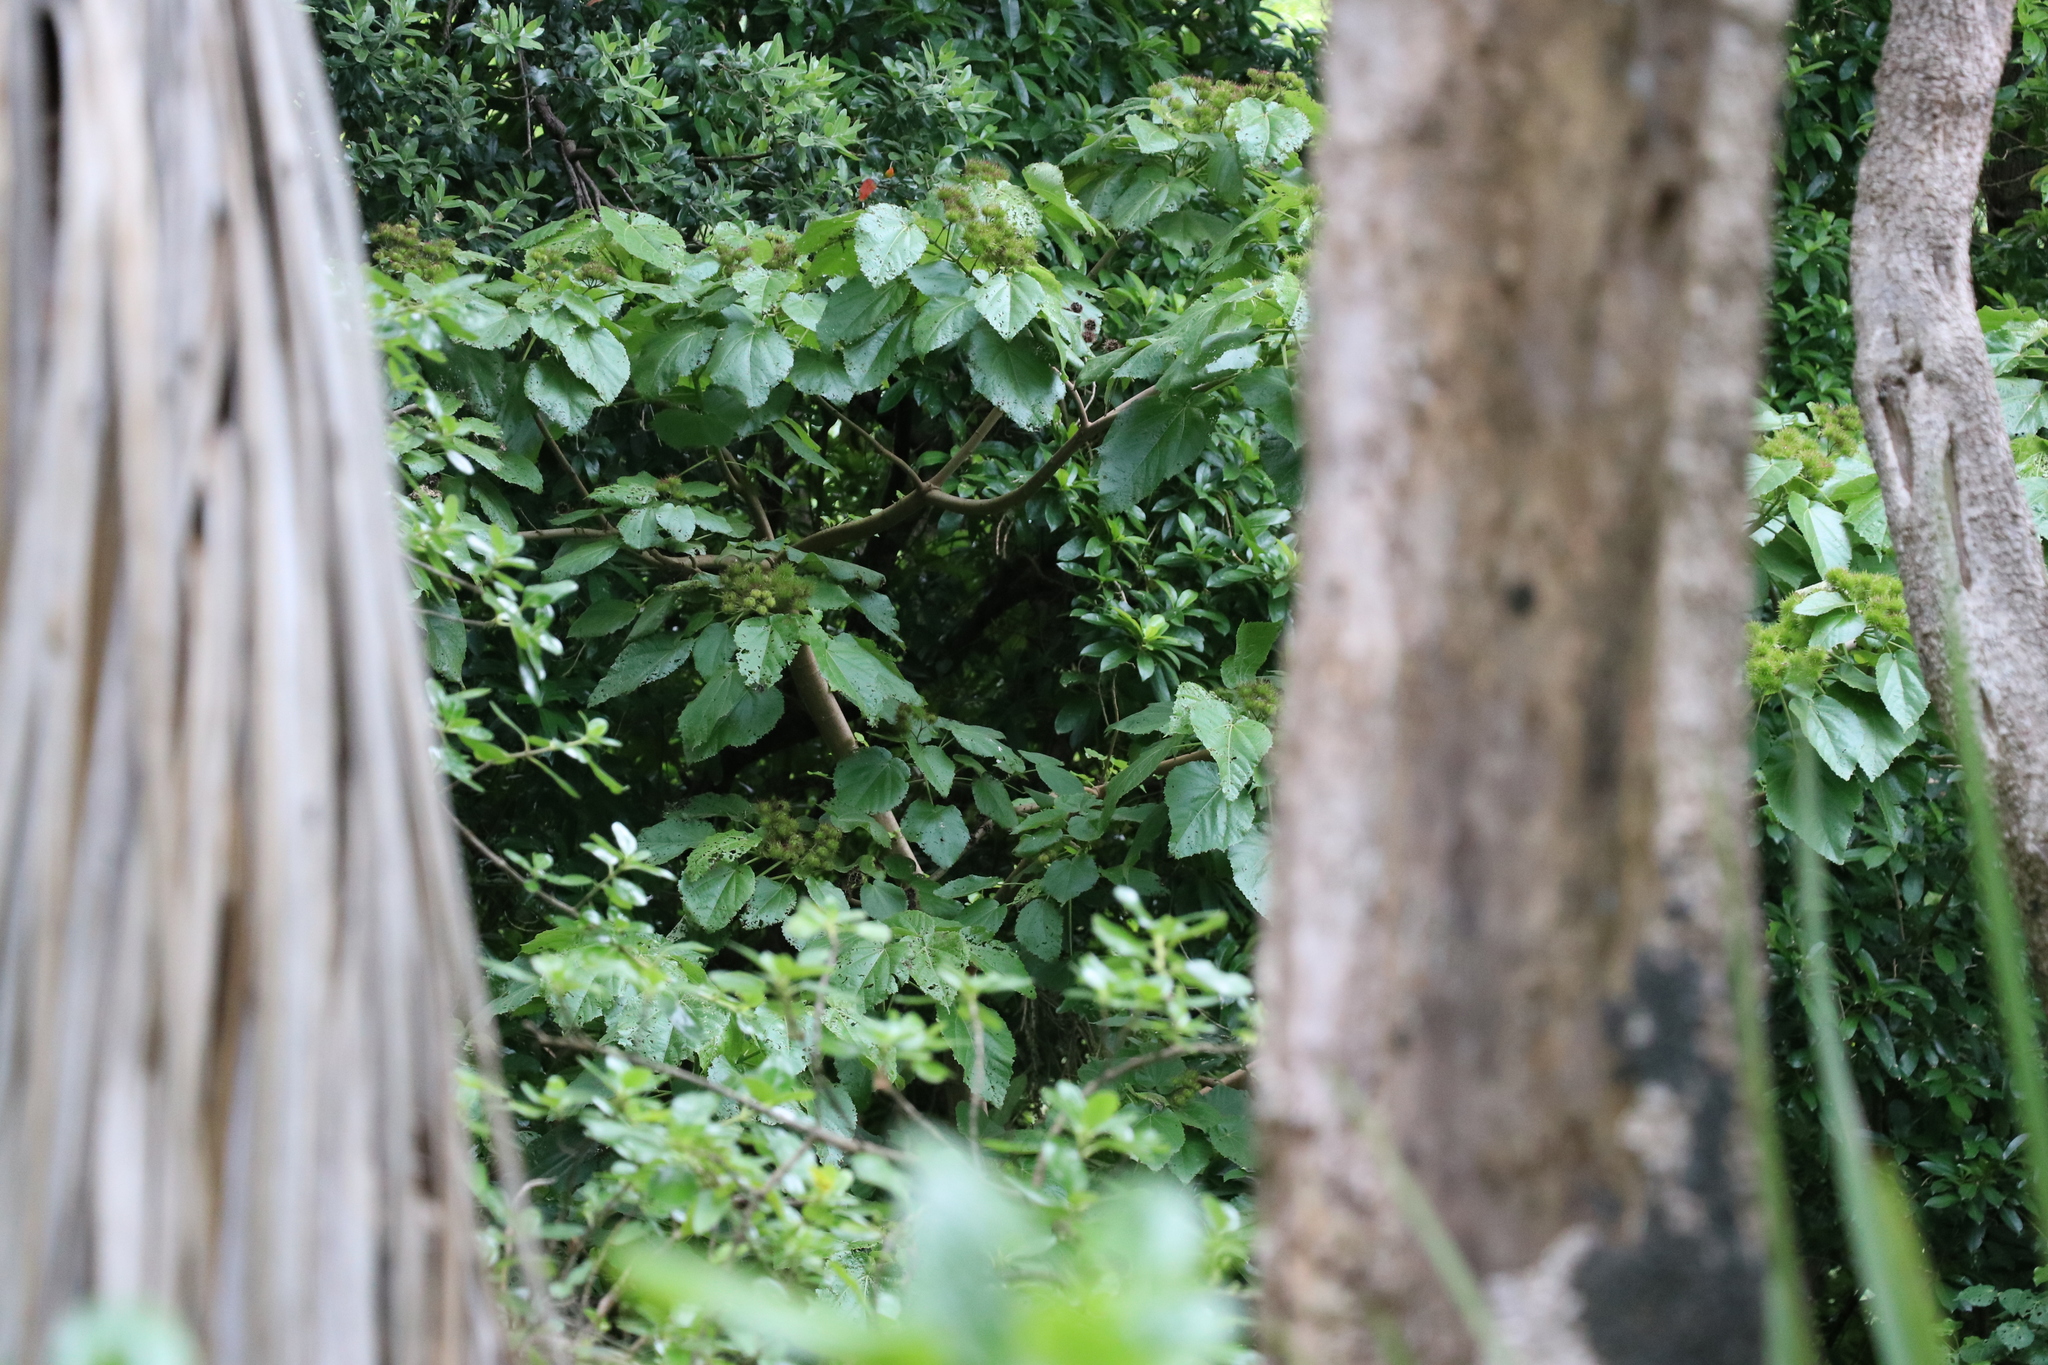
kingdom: Plantae
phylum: Tracheophyta
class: Magnoliopsida
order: Malvales
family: Malvaceae
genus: Entelea
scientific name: Entelea arborescens
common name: New zealand-mulberry
